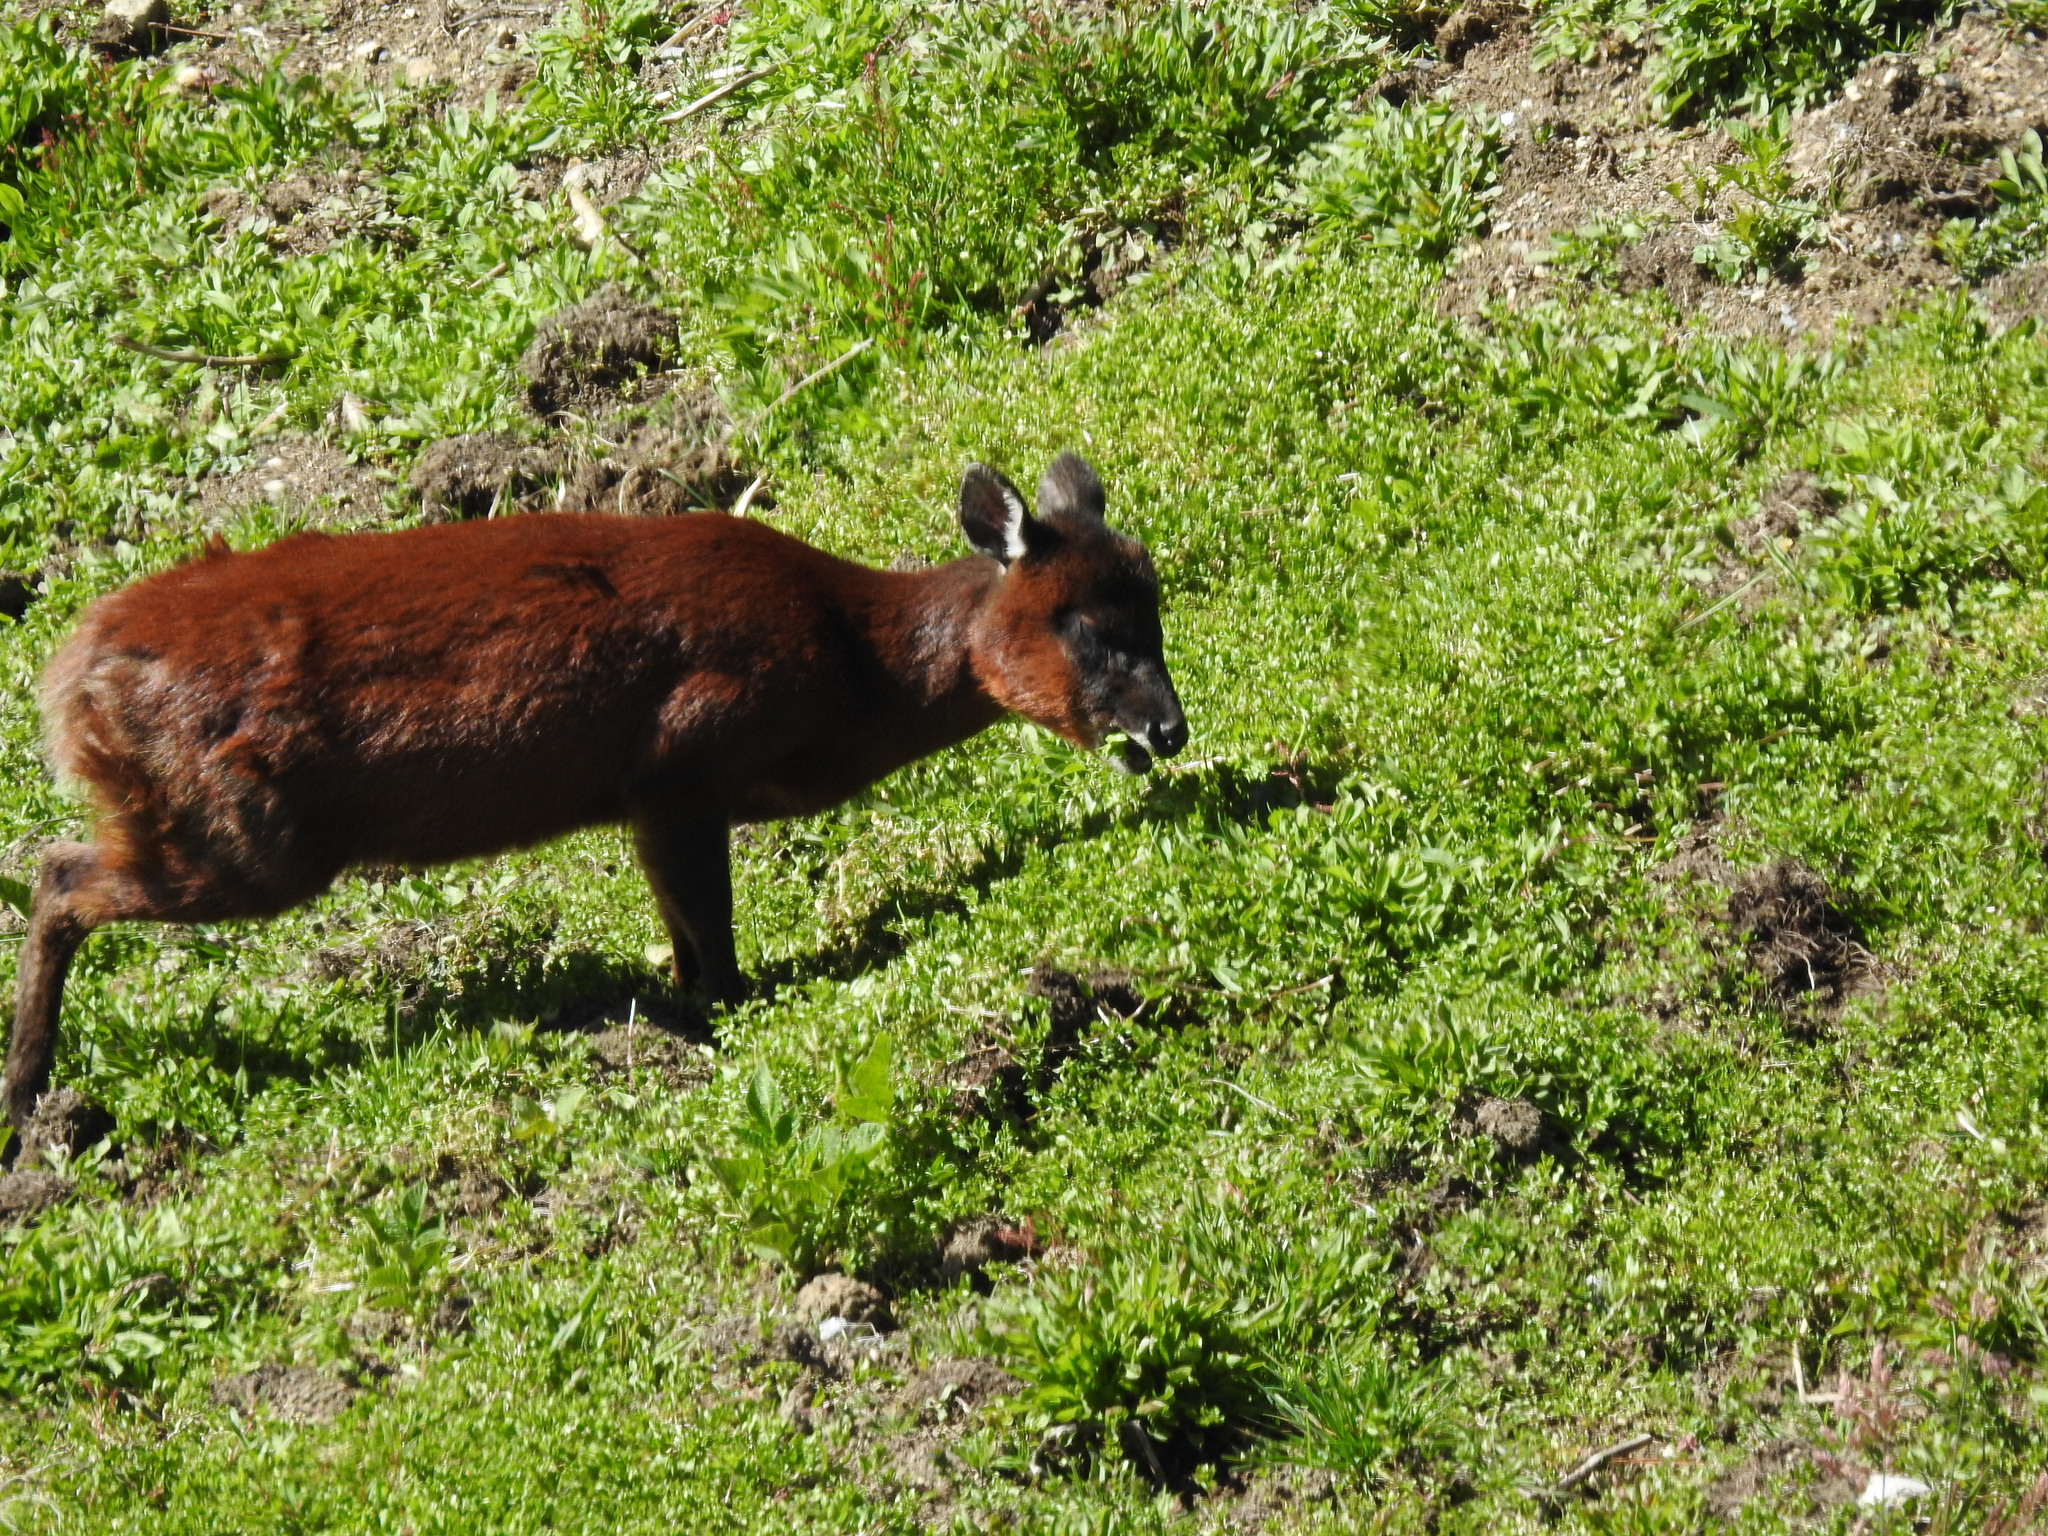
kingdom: Animalia
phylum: Chordata
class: Mammalia
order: Artiodactyla
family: Cervidae
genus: Mazama
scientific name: Mazama rufina
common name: Ecuador red brocket
